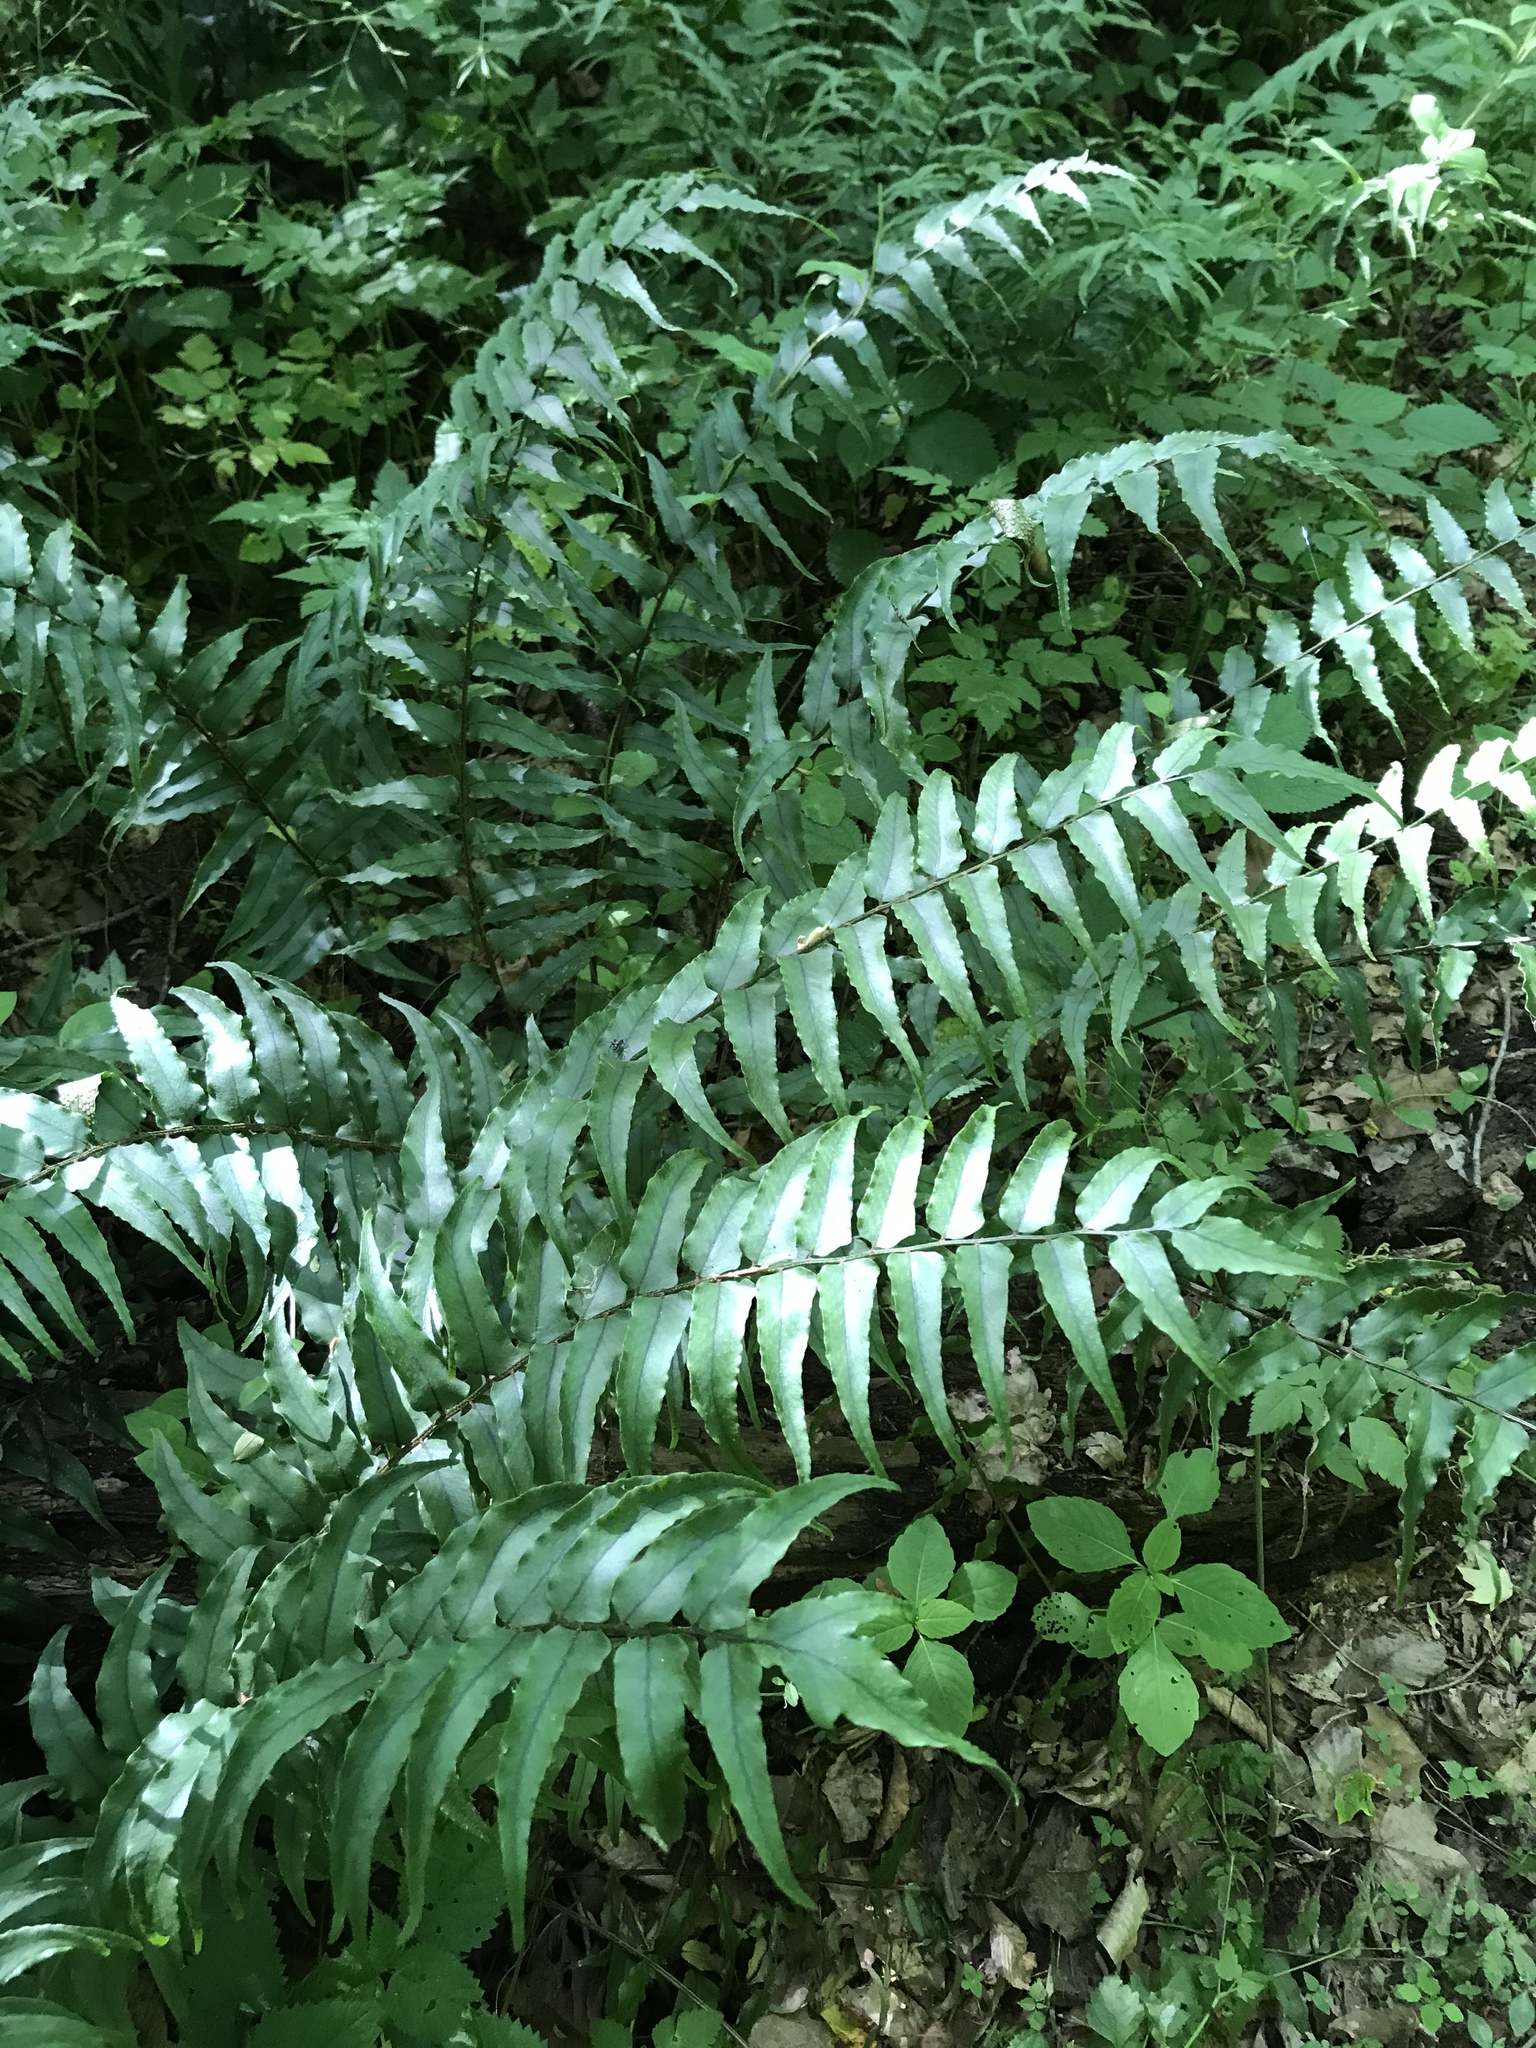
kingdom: Plantae
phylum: Tracheophyta
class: Polypodiopsida
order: Polypodiales
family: Dryopteridaceae
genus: Cyrtomium
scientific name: Cyrtomium fortunei
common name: Asian netvein hollyfern
